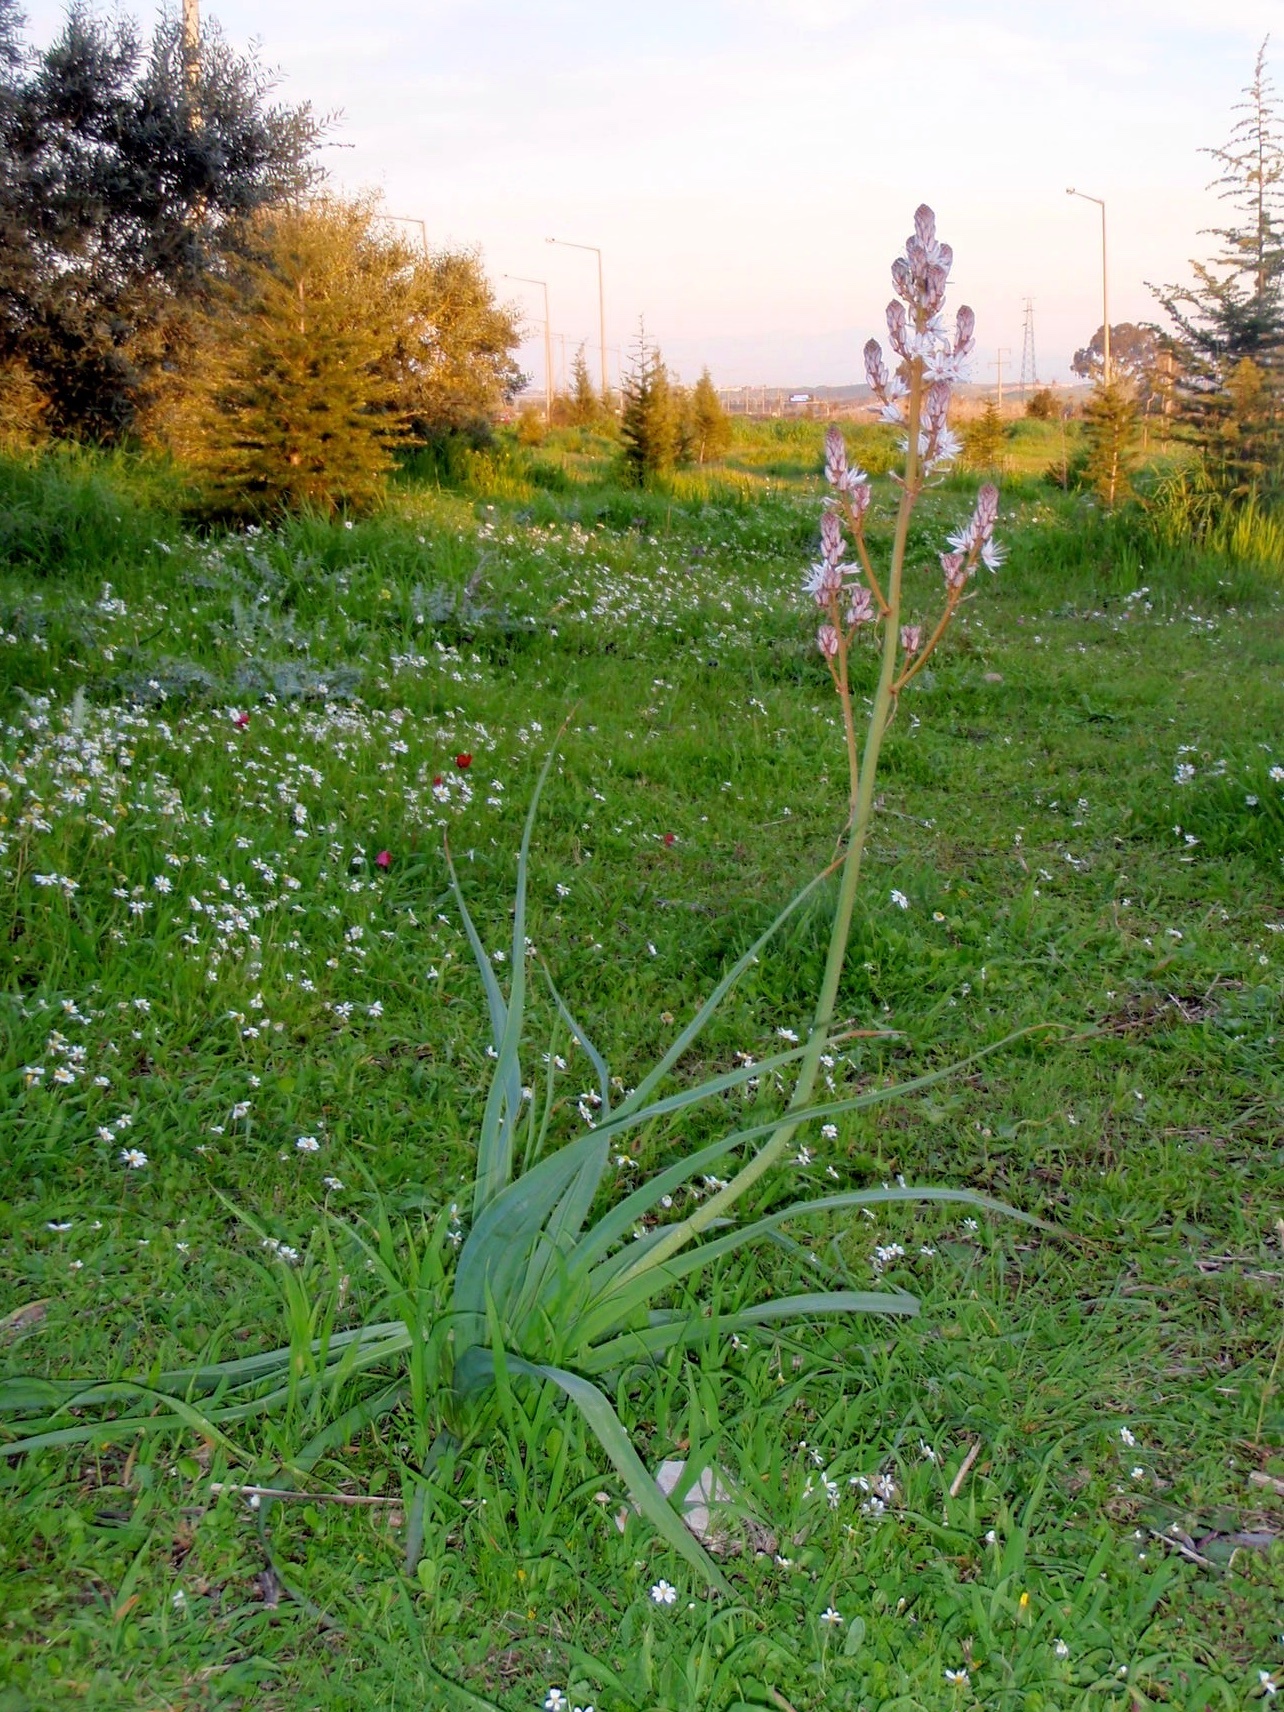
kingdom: Plantae
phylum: Tracheophyta
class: Liliopsida
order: Asparagales
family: Asphodelaceae
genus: Asphodelus
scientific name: Asphodelus ramosus
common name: Silverrod
